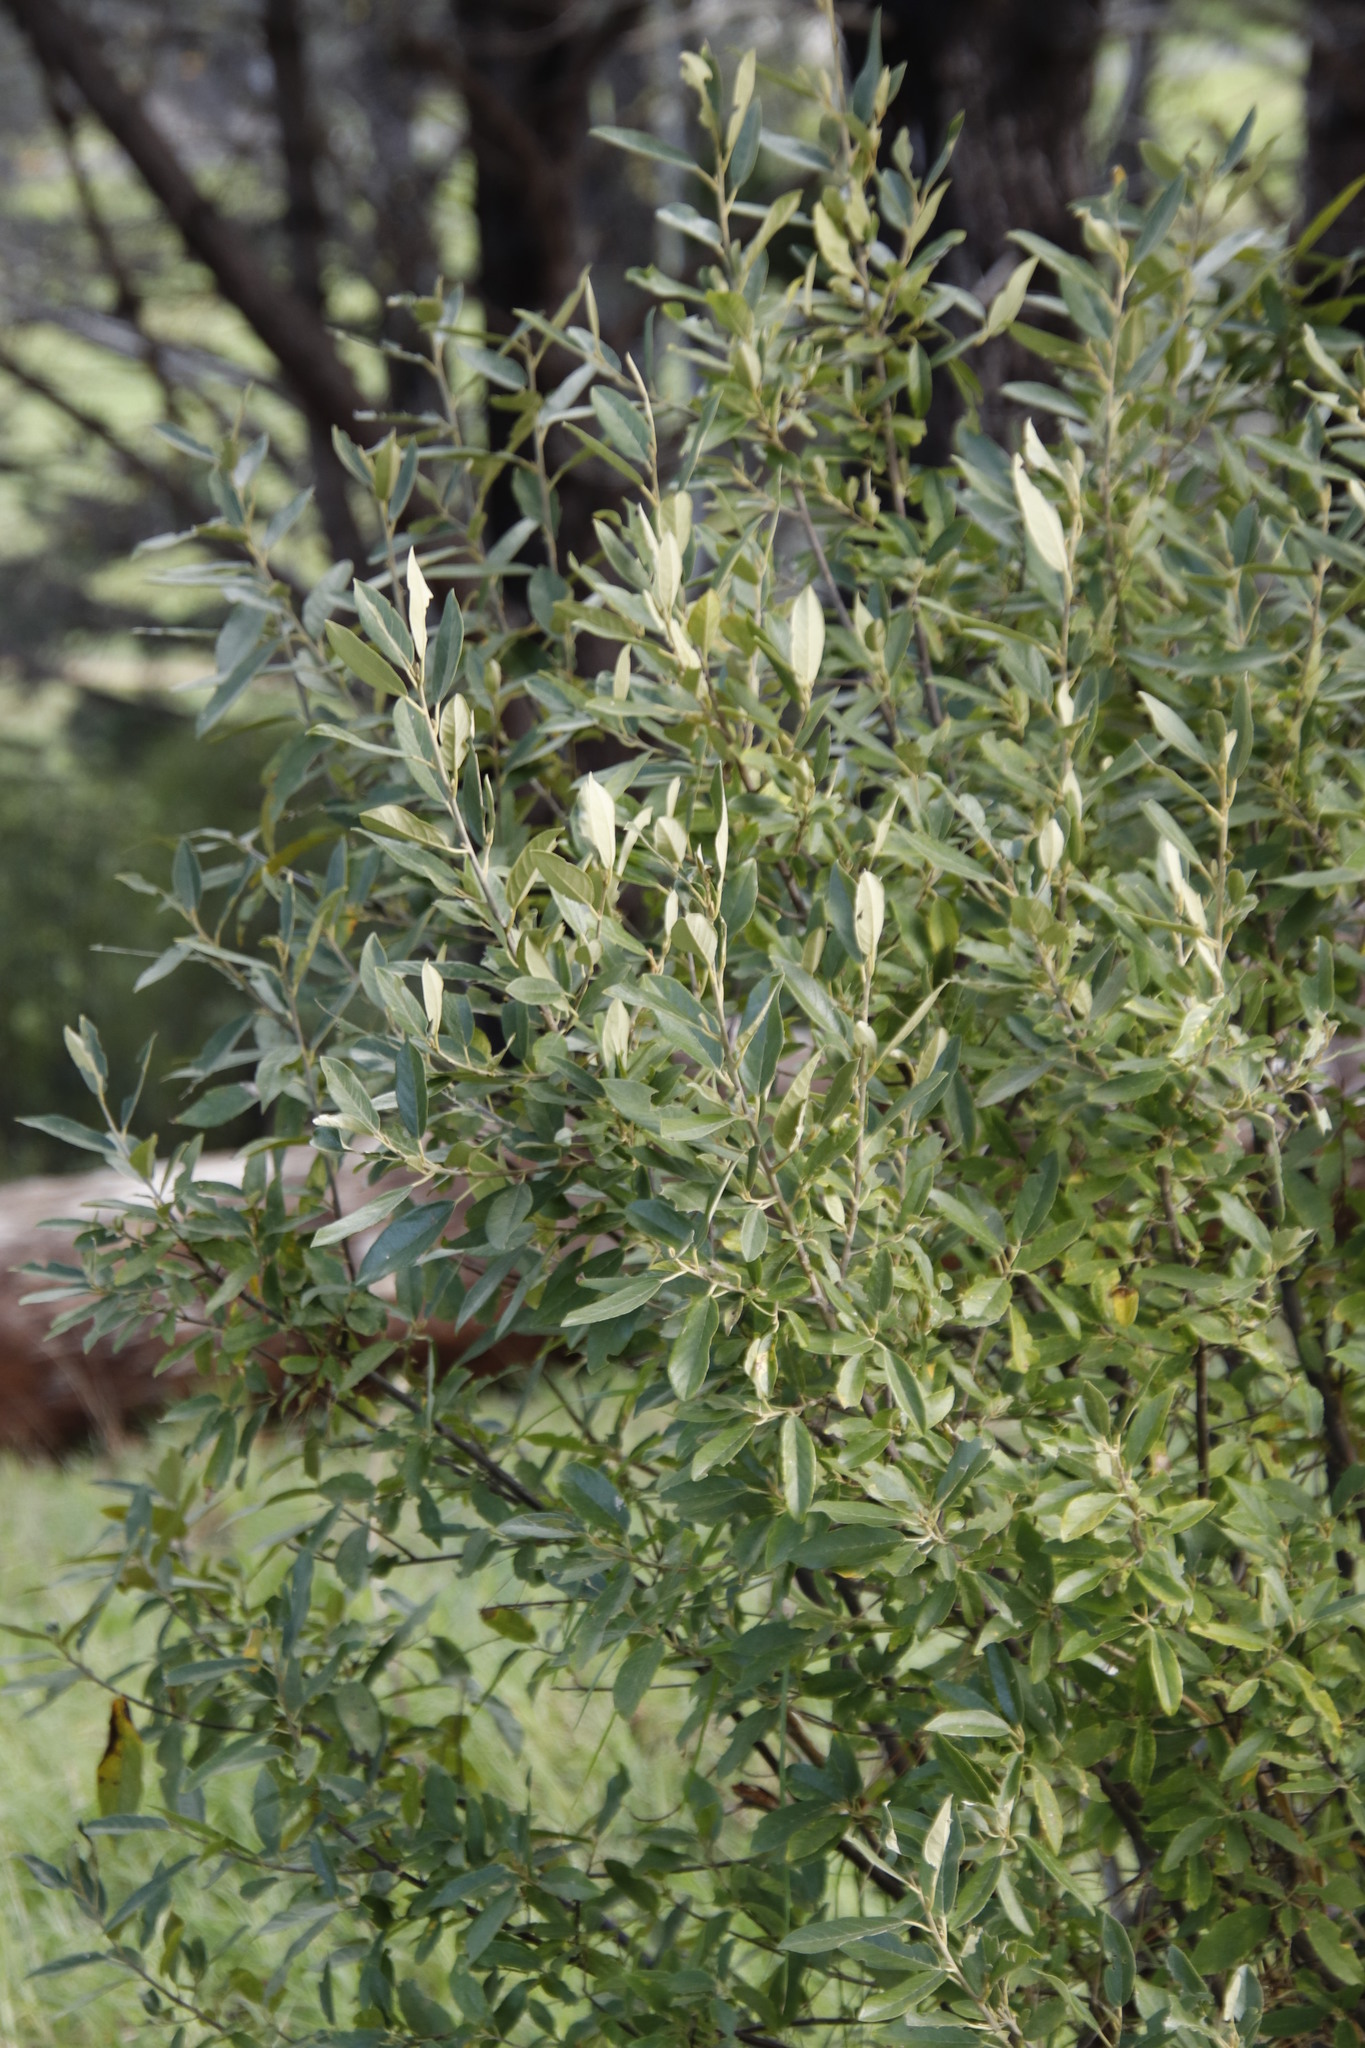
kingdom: Plantae
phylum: Tracheophyta
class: Magnoliopsida
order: Malpighiales
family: Achariaceae
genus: Kiggelaria
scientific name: Kiggelaria africana
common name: Wild peach
